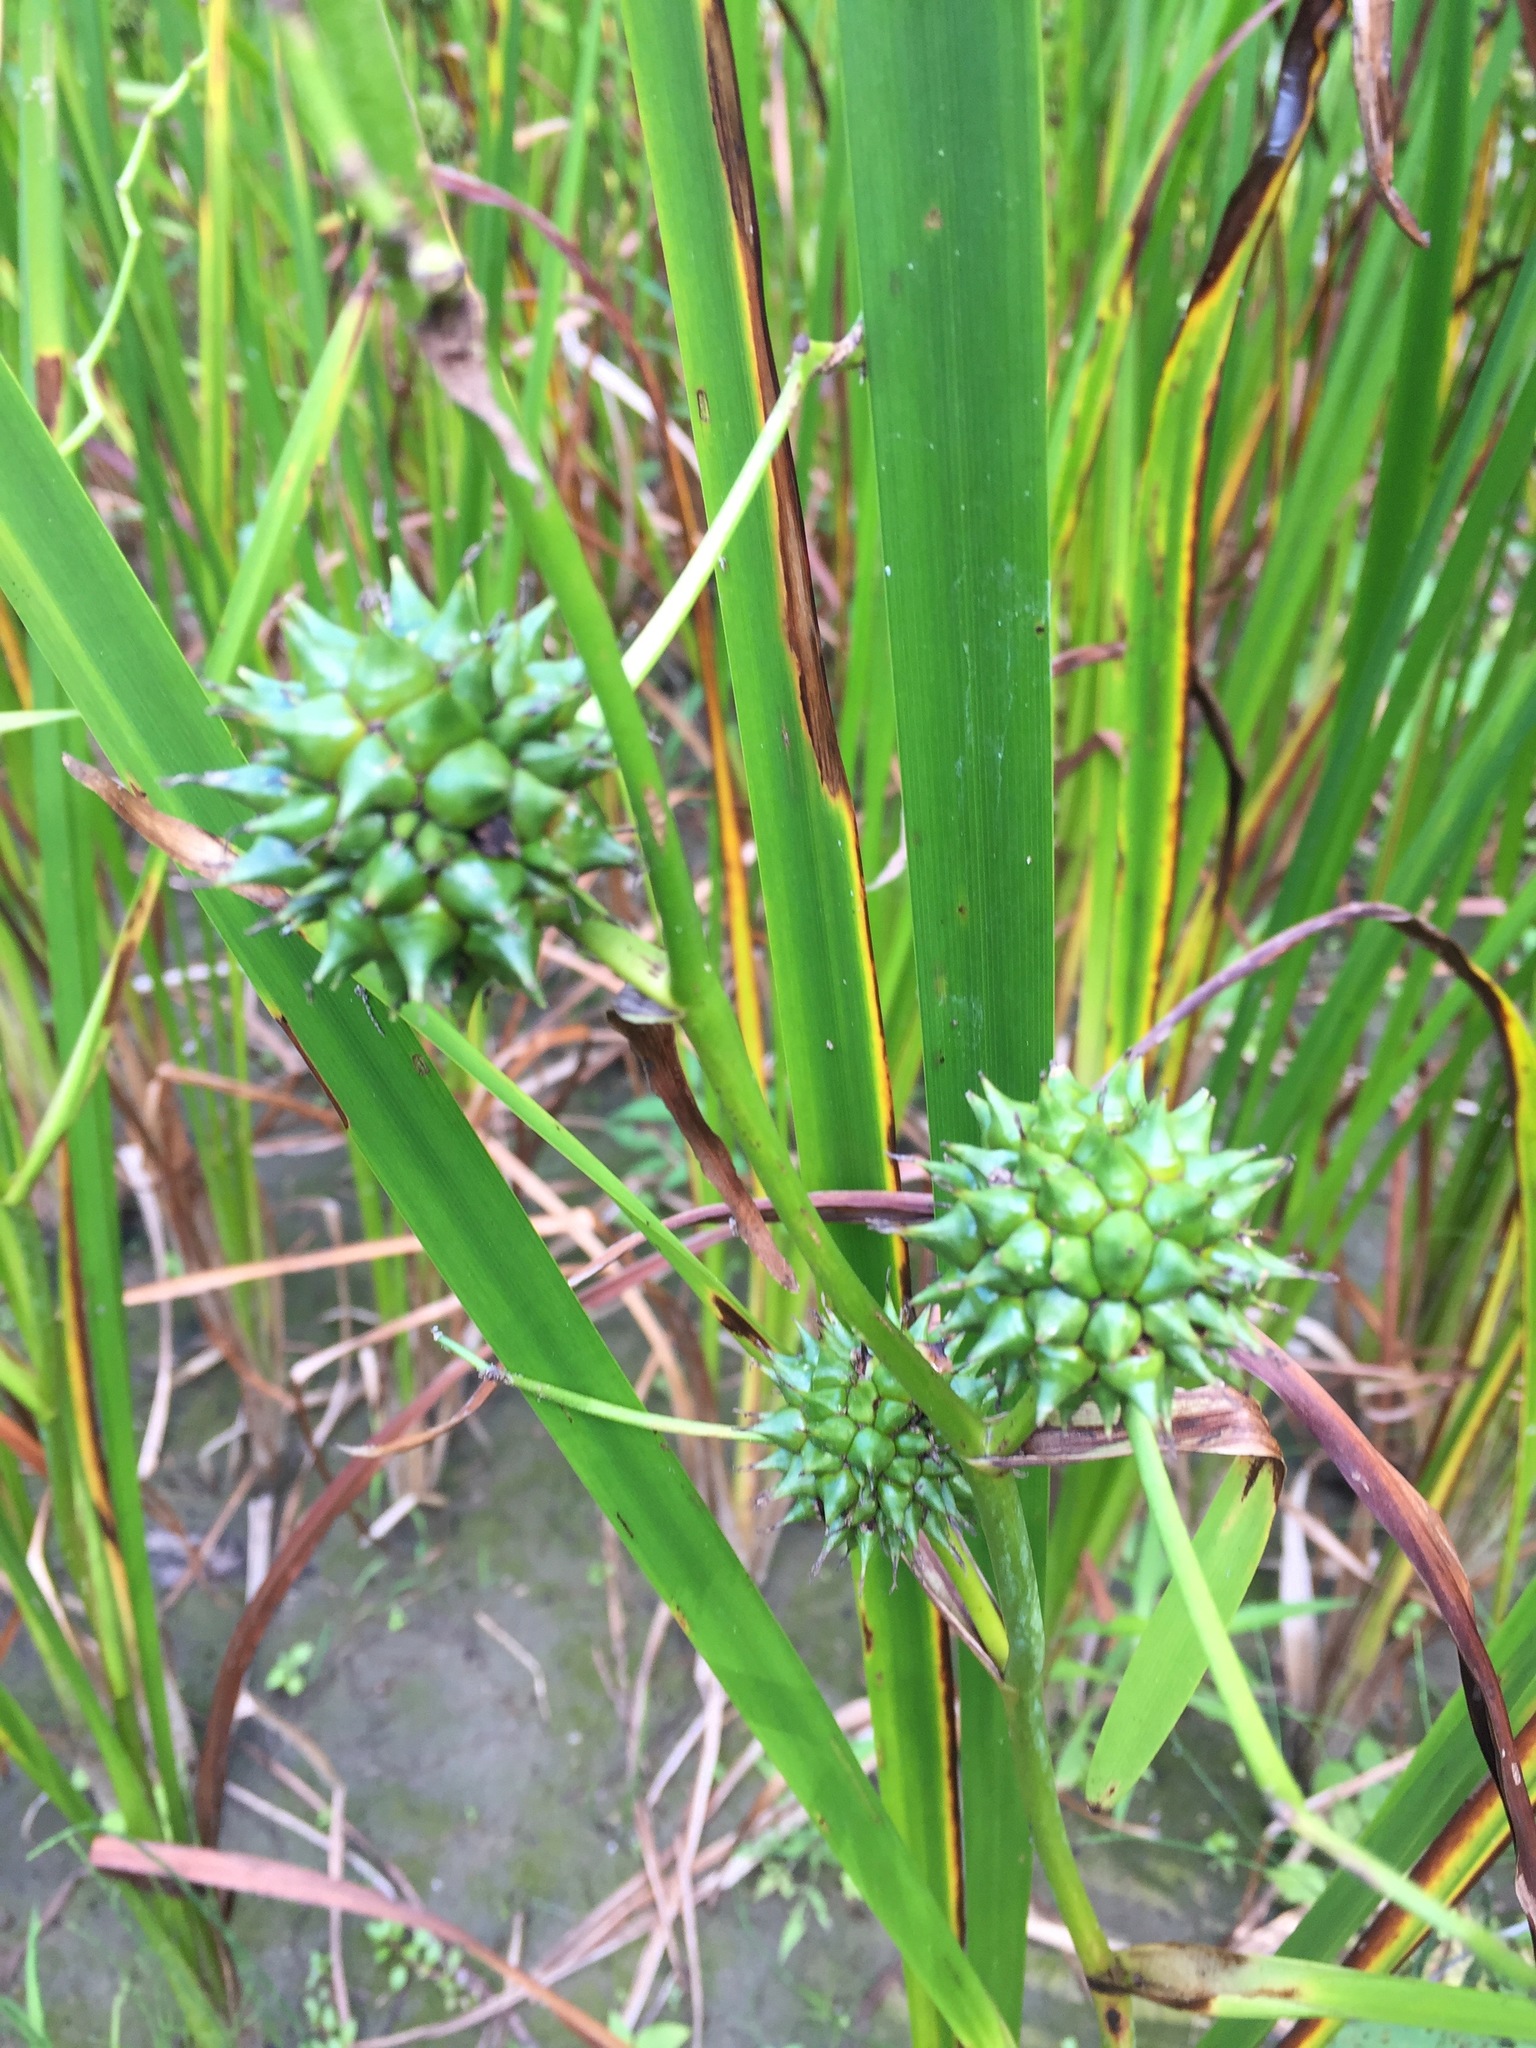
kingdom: Plantae
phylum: Tracheophyta
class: Liliopsida
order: Poales
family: Typhaceae
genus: Sparganium
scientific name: Sparganium eurycarpum
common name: Broad-fruited burreed
